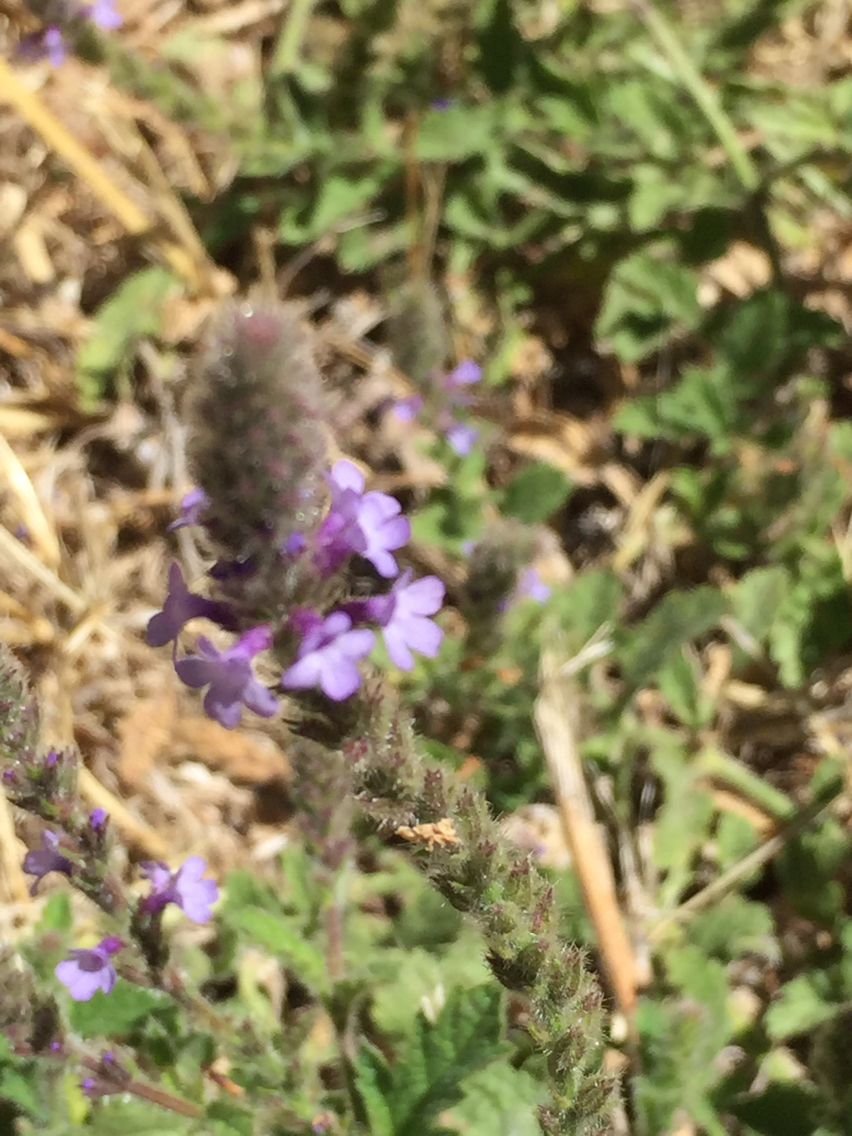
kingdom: Plantae
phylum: Tracheophyta
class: Magnoliopsida
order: Lamiales
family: Verbenaceae
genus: Verbena
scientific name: Verbena lasiostachys
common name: Vervain
